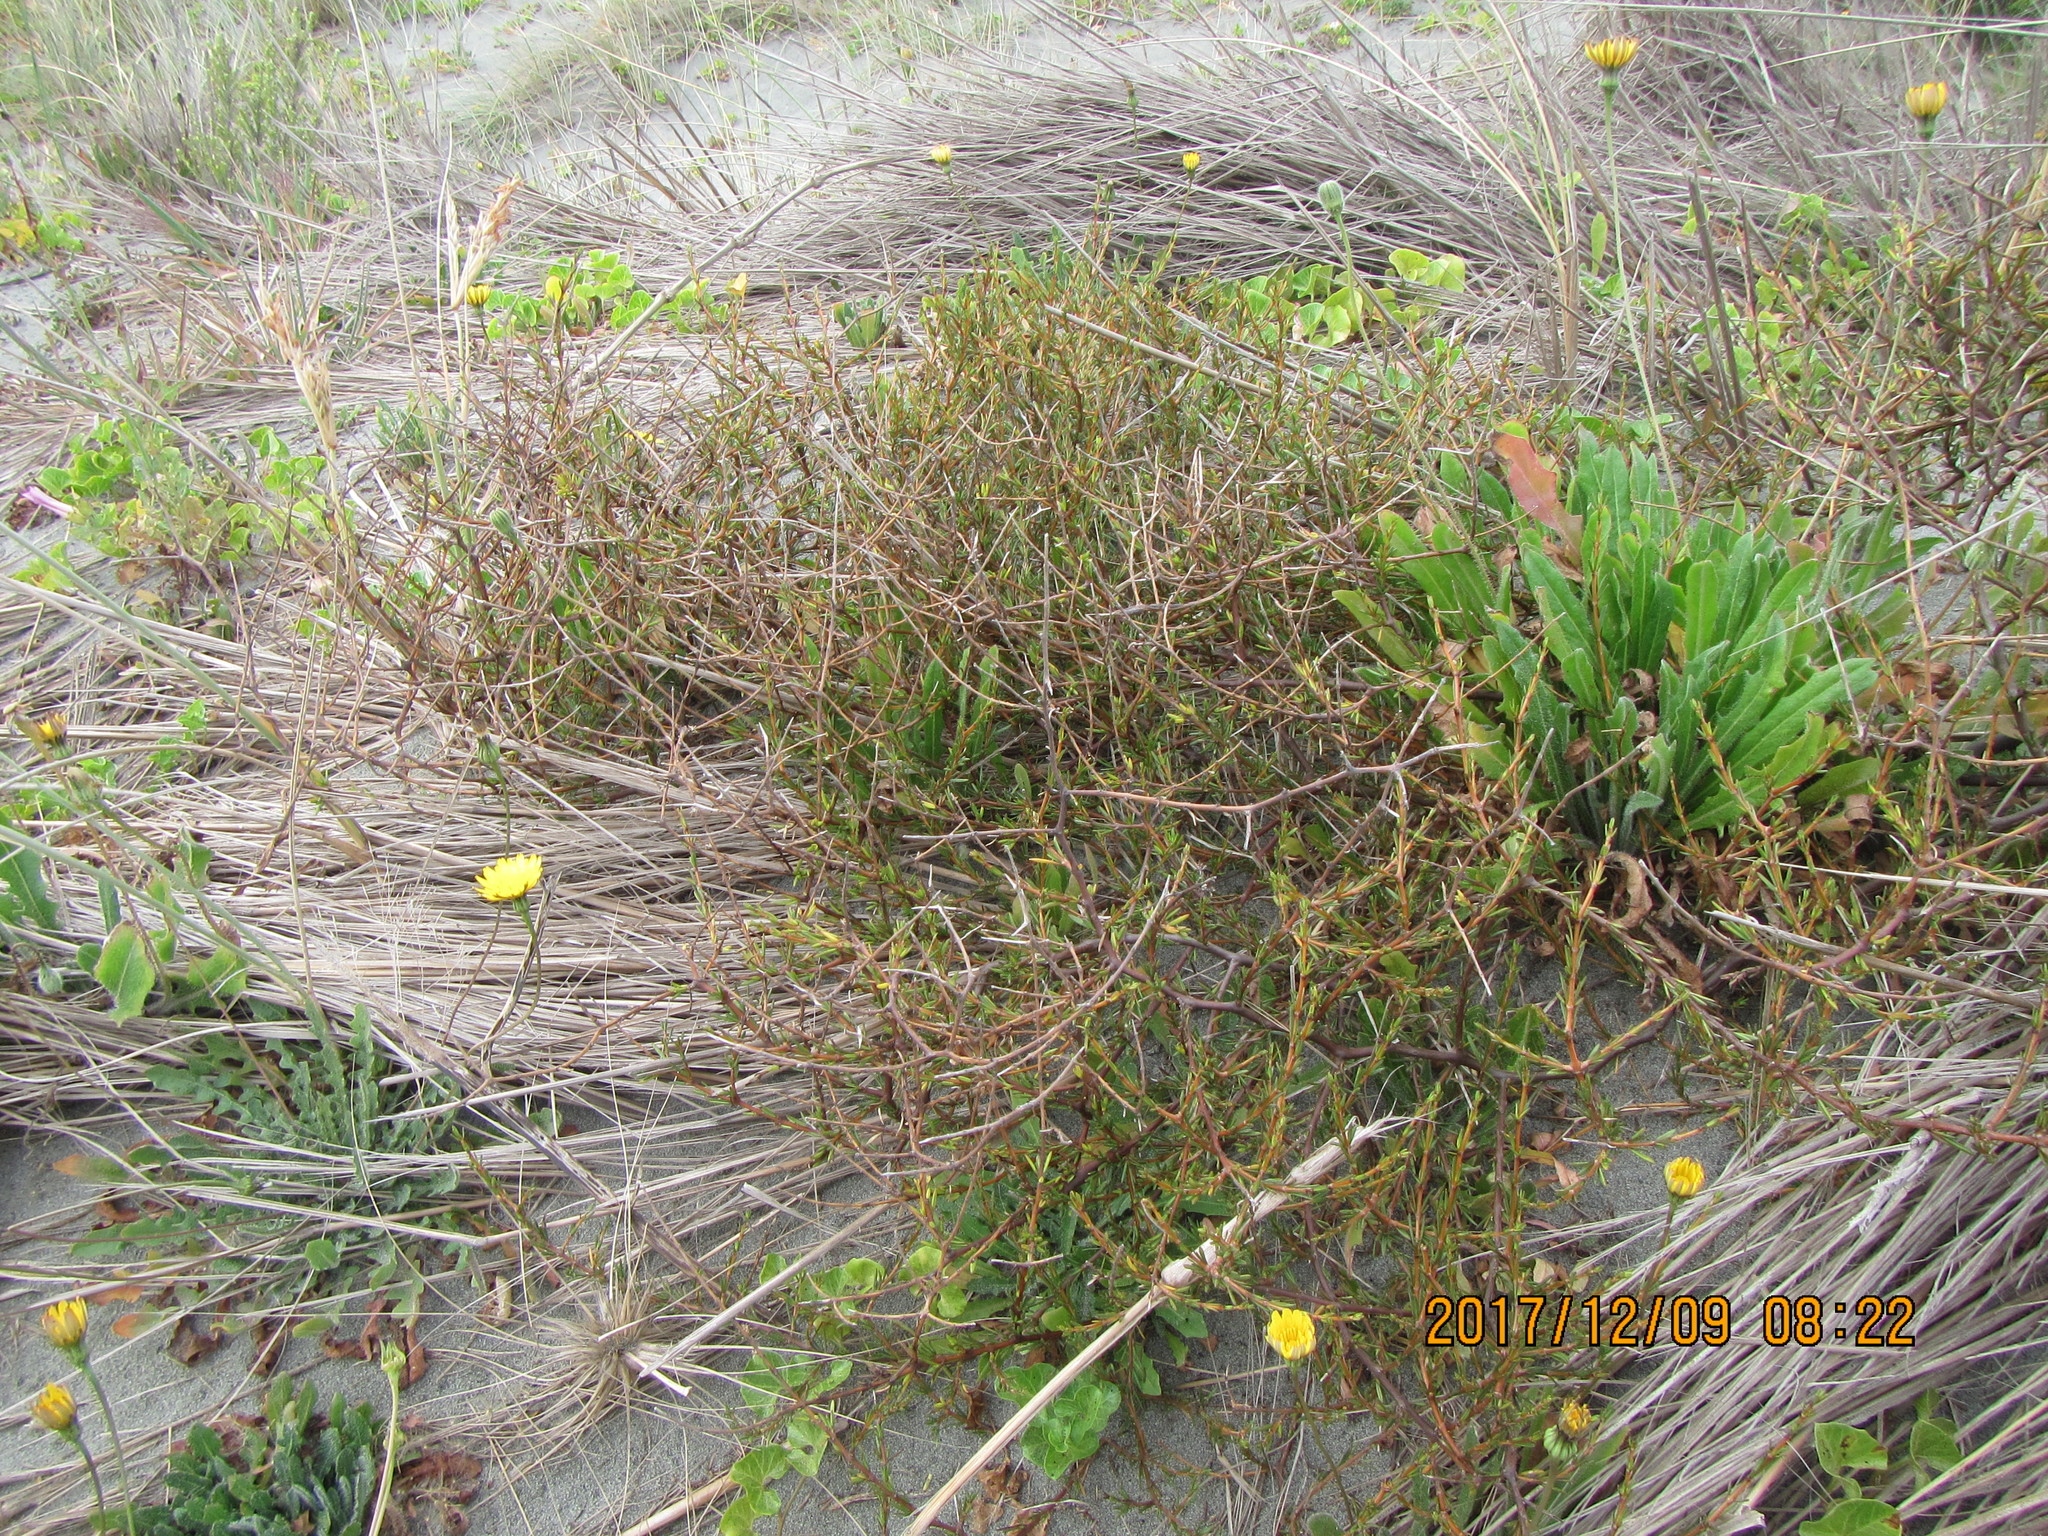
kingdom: Plantae
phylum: Tracheophyta
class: Magnoliopsida
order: Gentianales
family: Rubiaceae
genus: Coprosma
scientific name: Coprosma acerosa
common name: Sand coprosma
